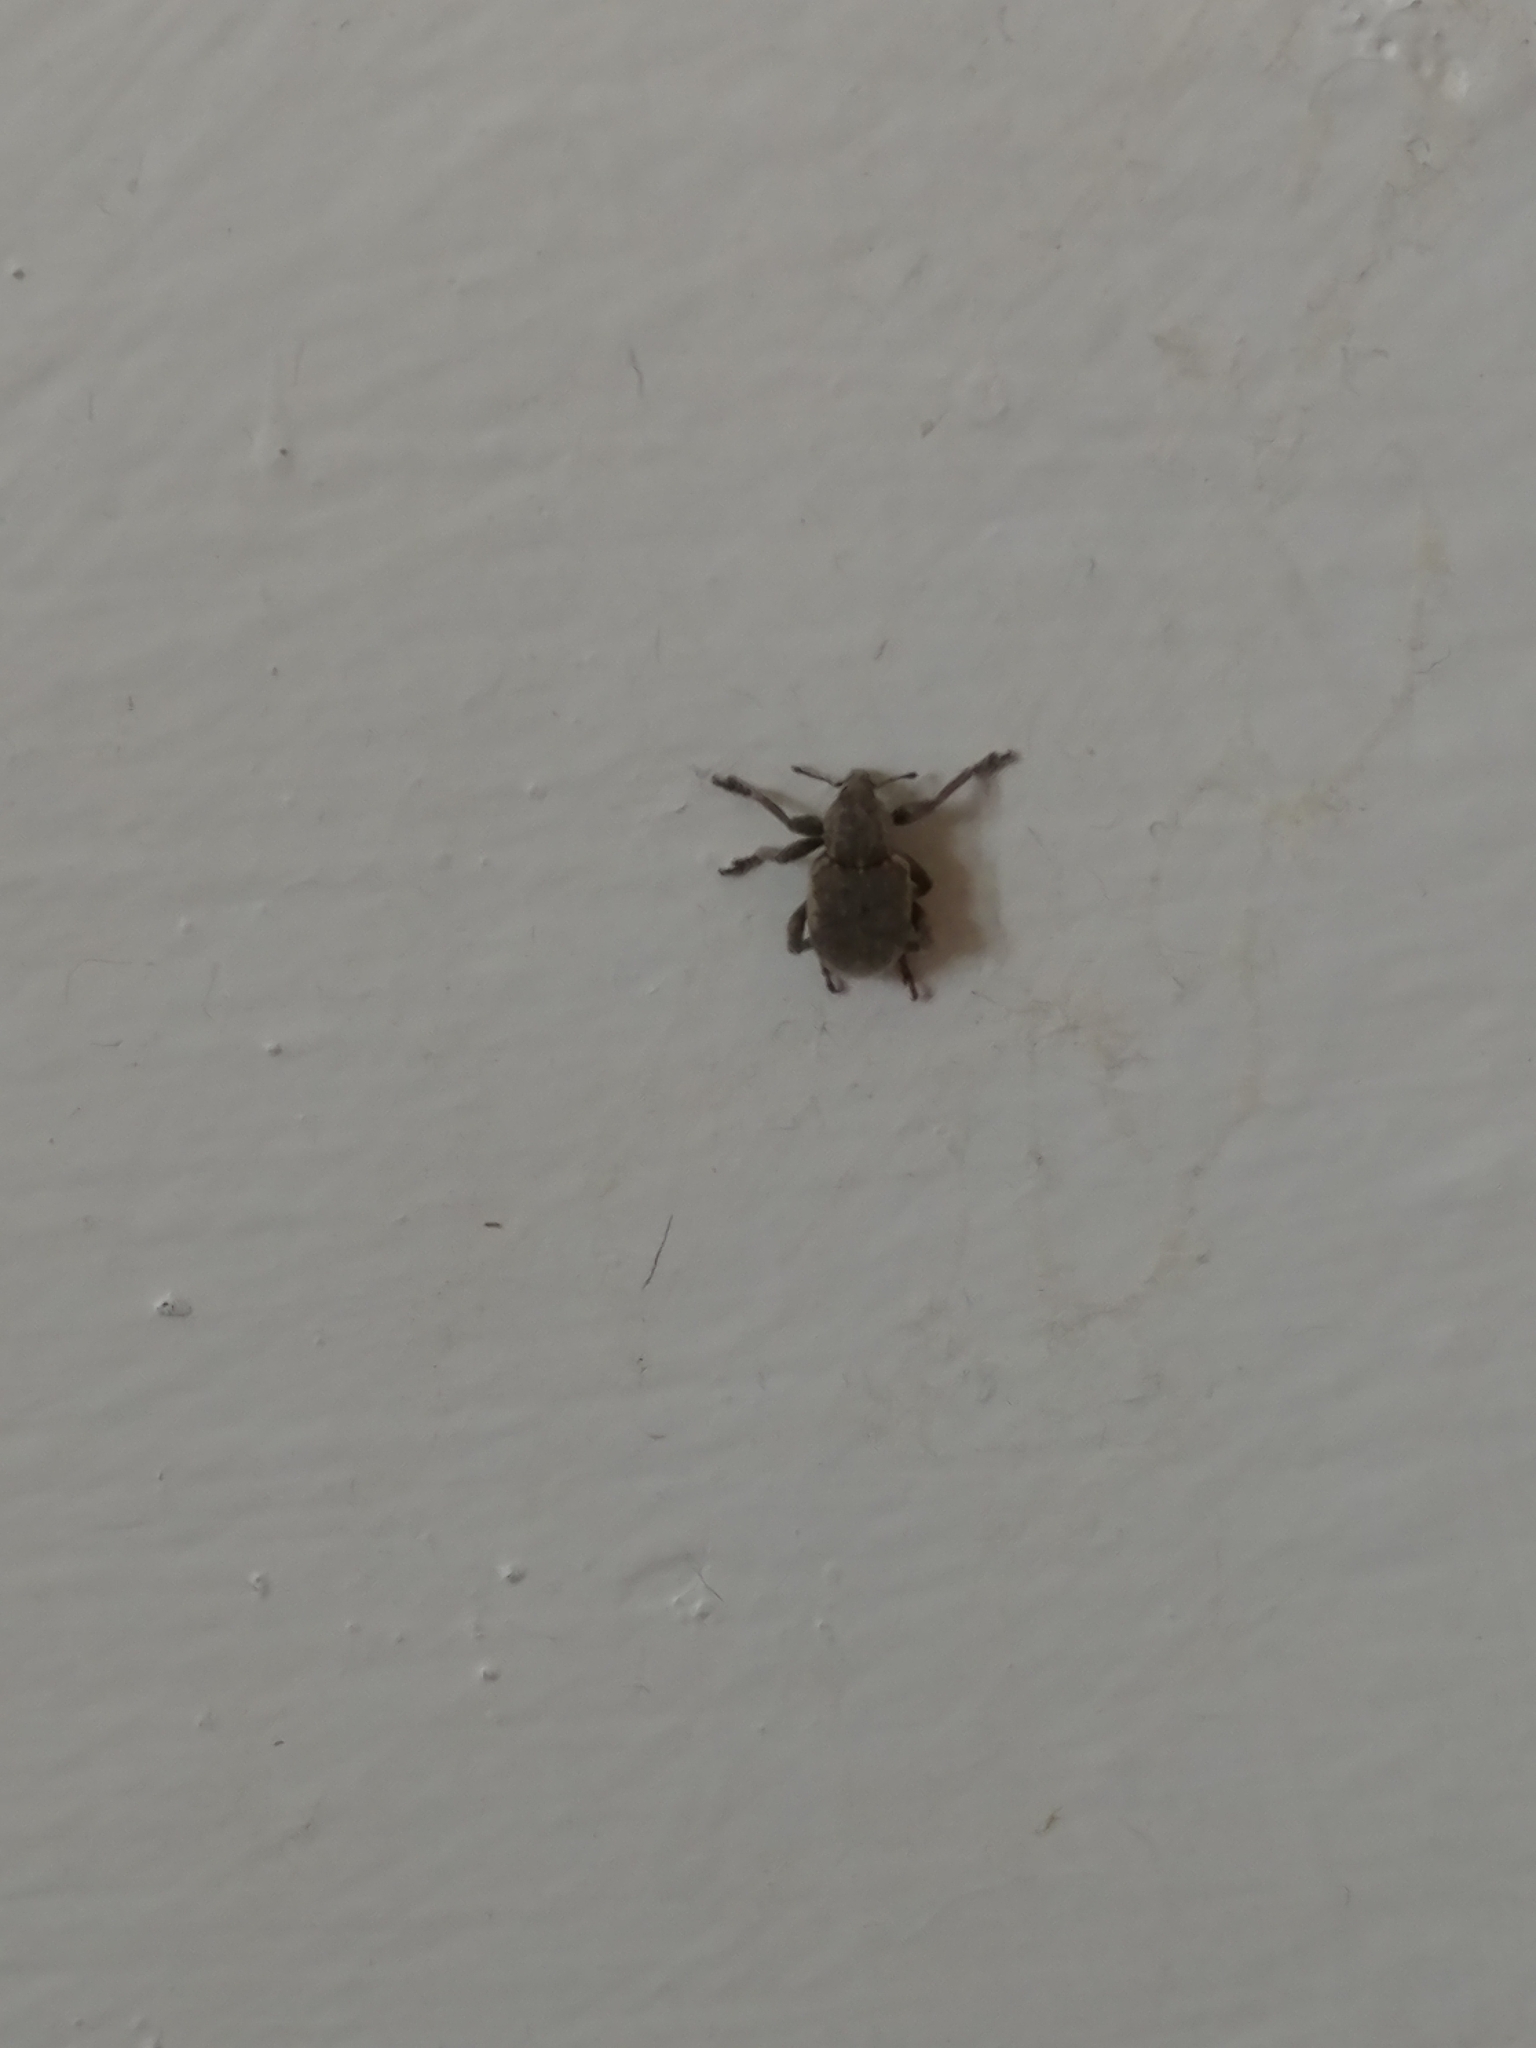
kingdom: Animalia
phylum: Arthropoda
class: Insecta
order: Coleoptera
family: Curculionidae
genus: Brachypera
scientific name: Brachypera zoilus
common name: Clover leaf weevil
